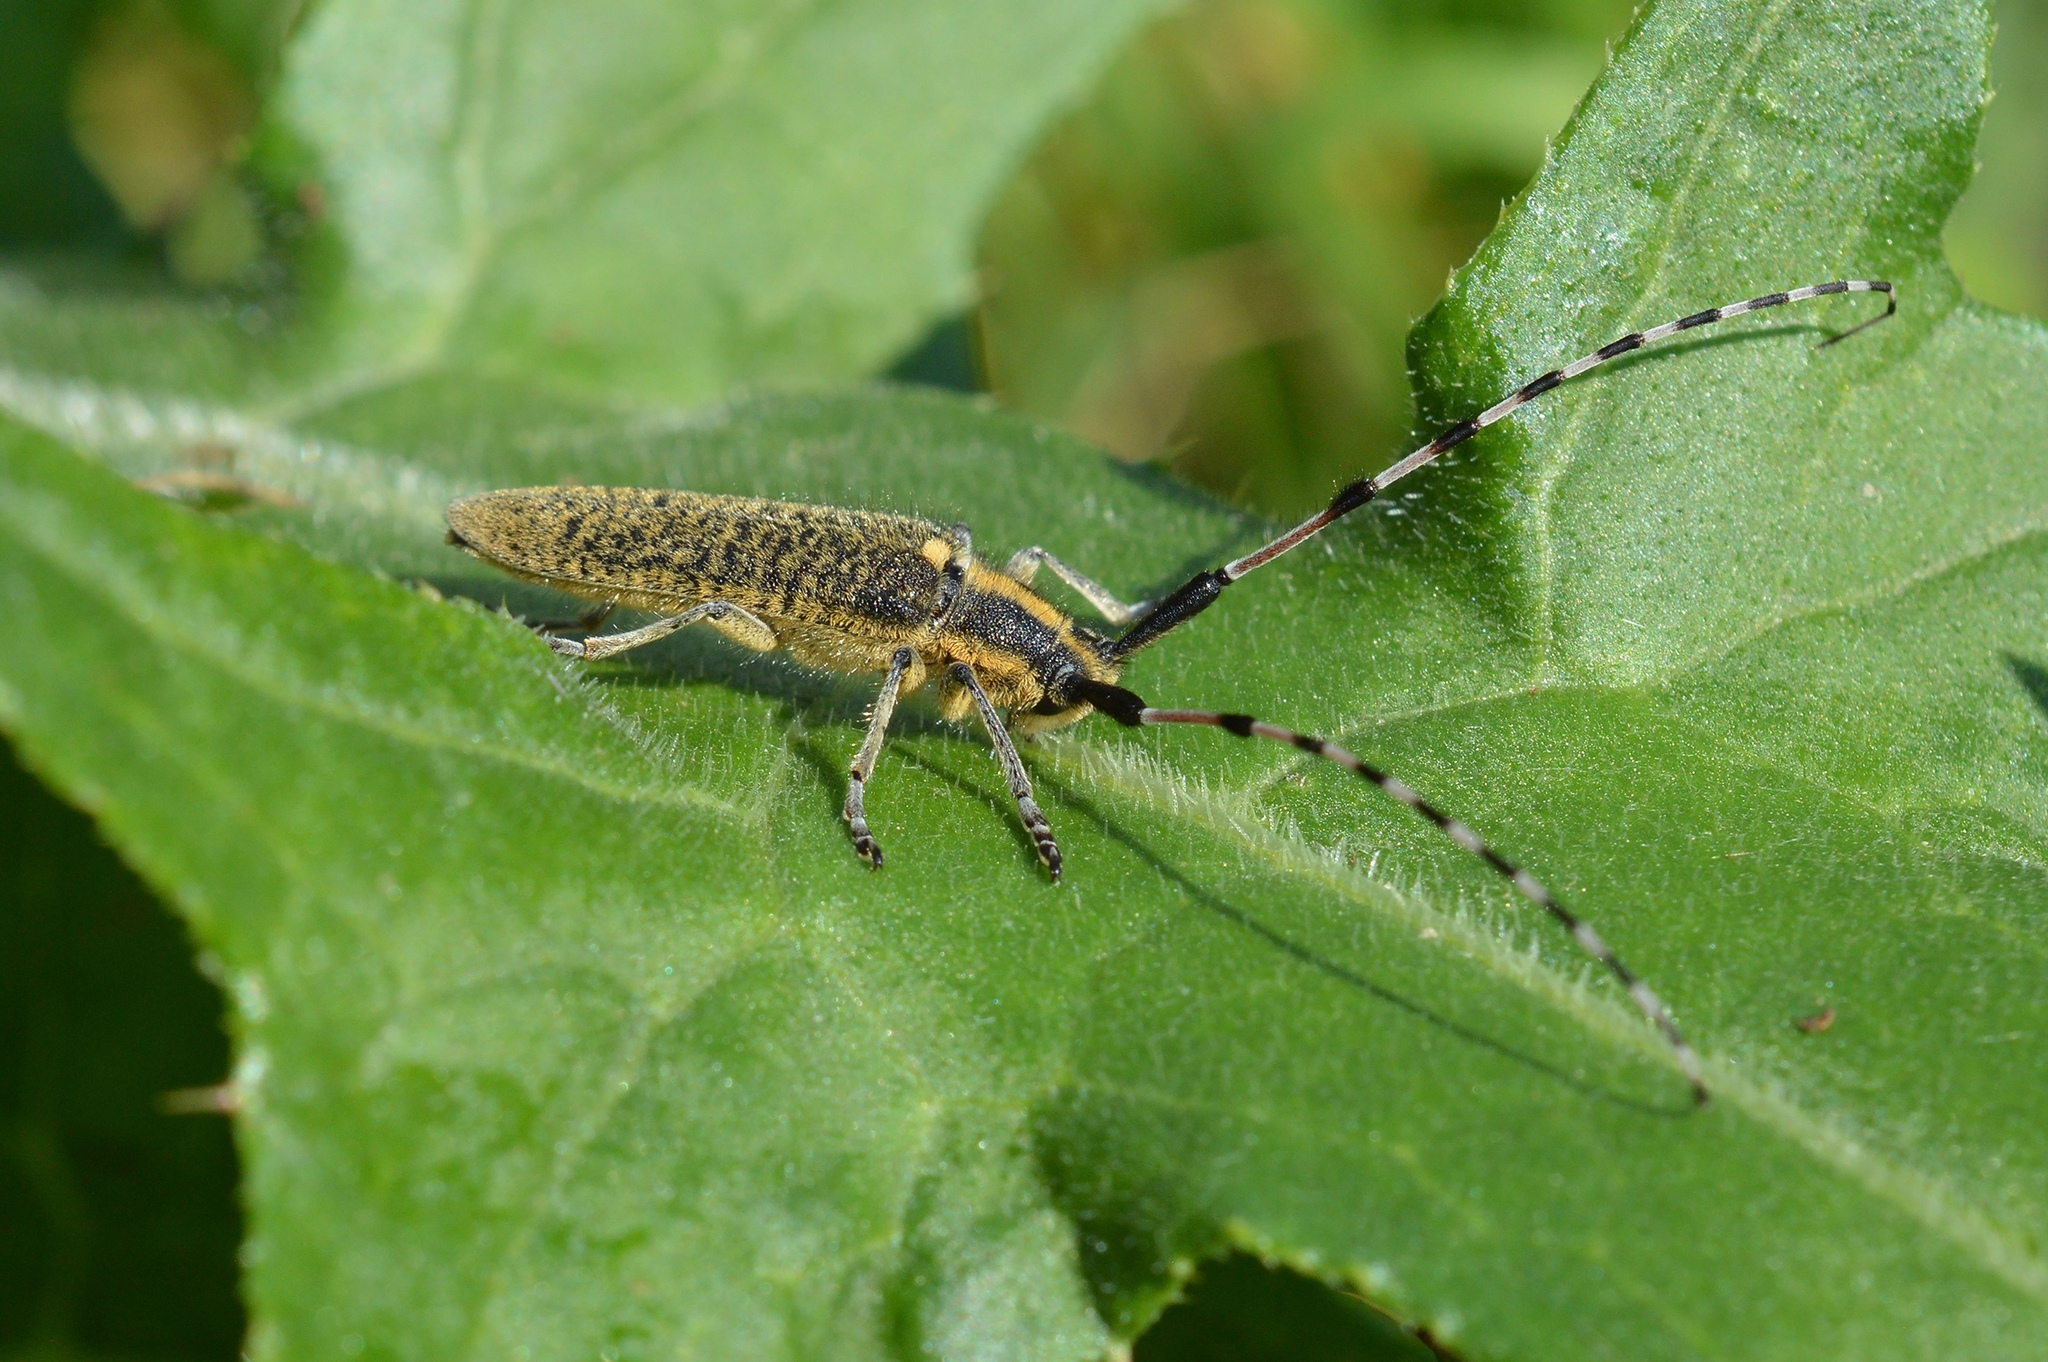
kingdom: Animalia
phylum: Arthropoda
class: Insecta
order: Coleoptera
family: Cerambycidae
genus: Agapanthia
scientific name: Agapanthia dahlii
